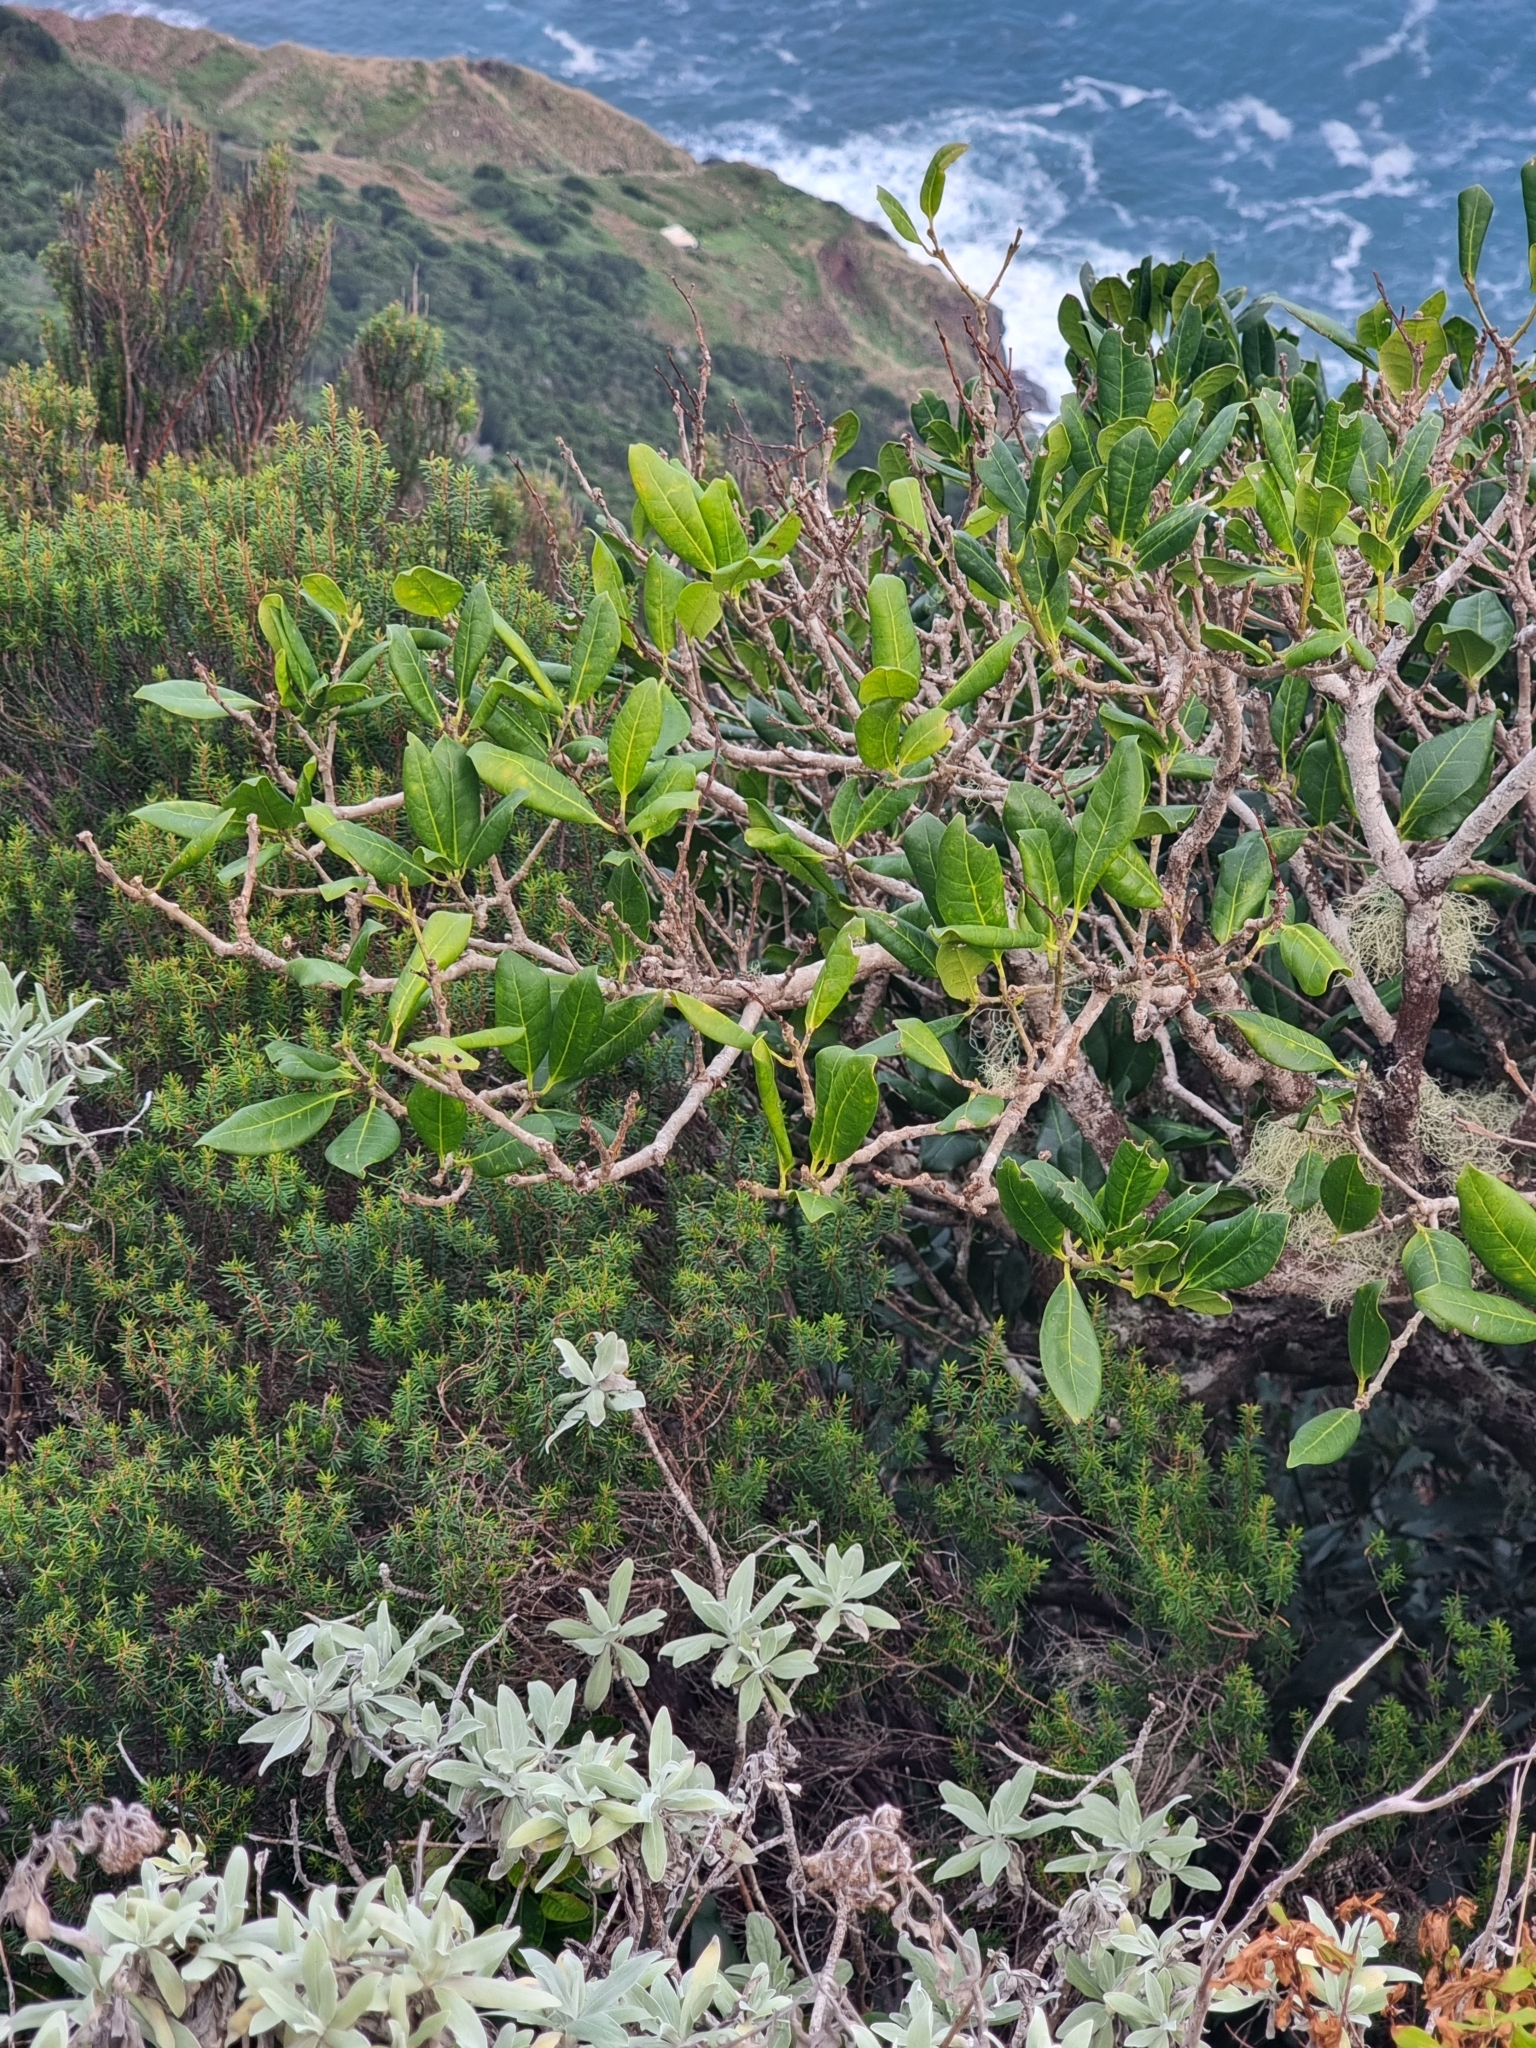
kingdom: Plantae
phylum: Tracheophyta
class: Magnoliopsida
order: Lamiales
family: Oleaceae
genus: Picconia
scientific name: Picconia excelsa
